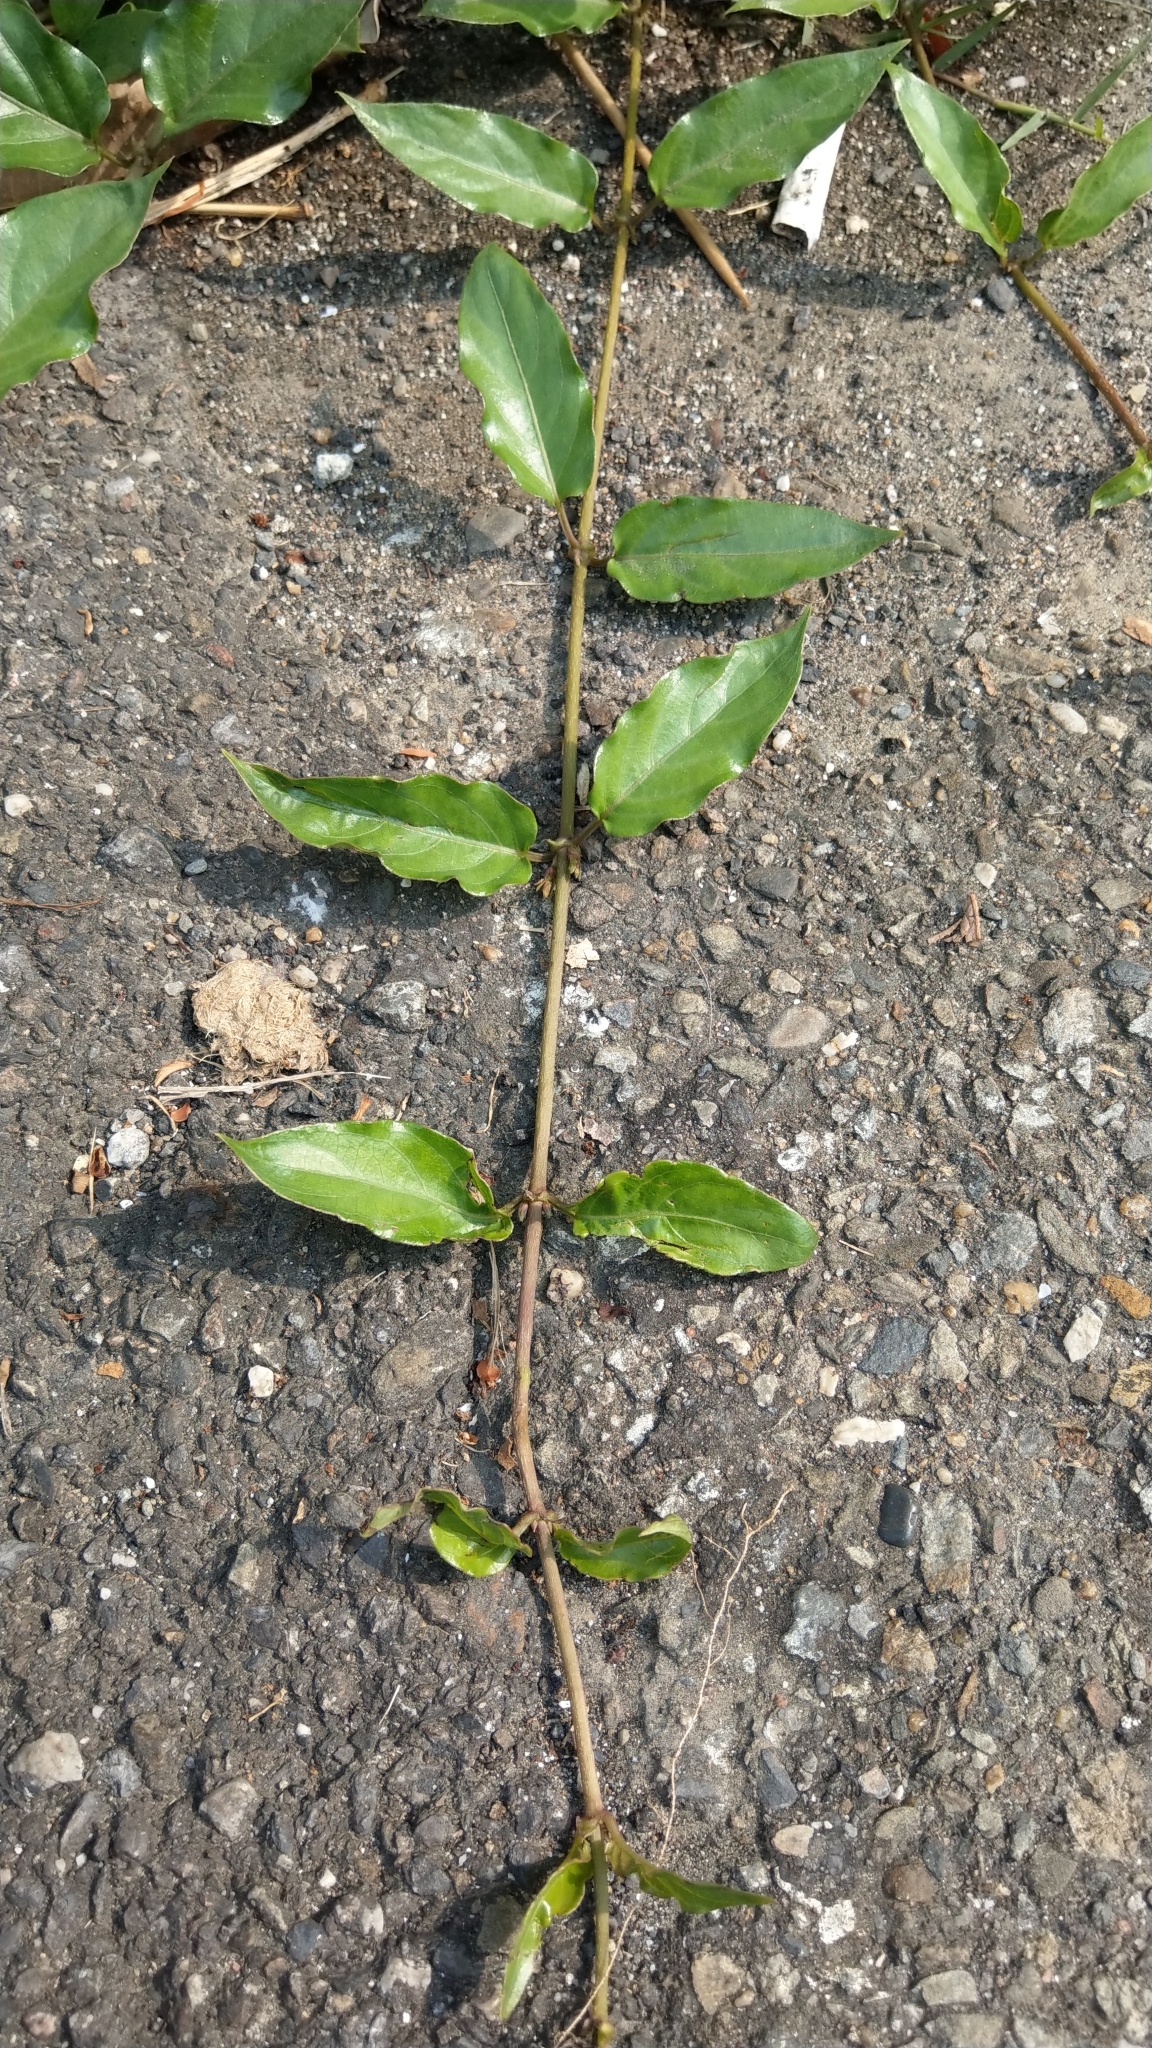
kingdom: Plantae
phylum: Tracheophyta
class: Magnoliopsida
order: Gentianales
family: Rubiaceae
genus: Paederia
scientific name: Paederia foetida
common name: Stinkvine
